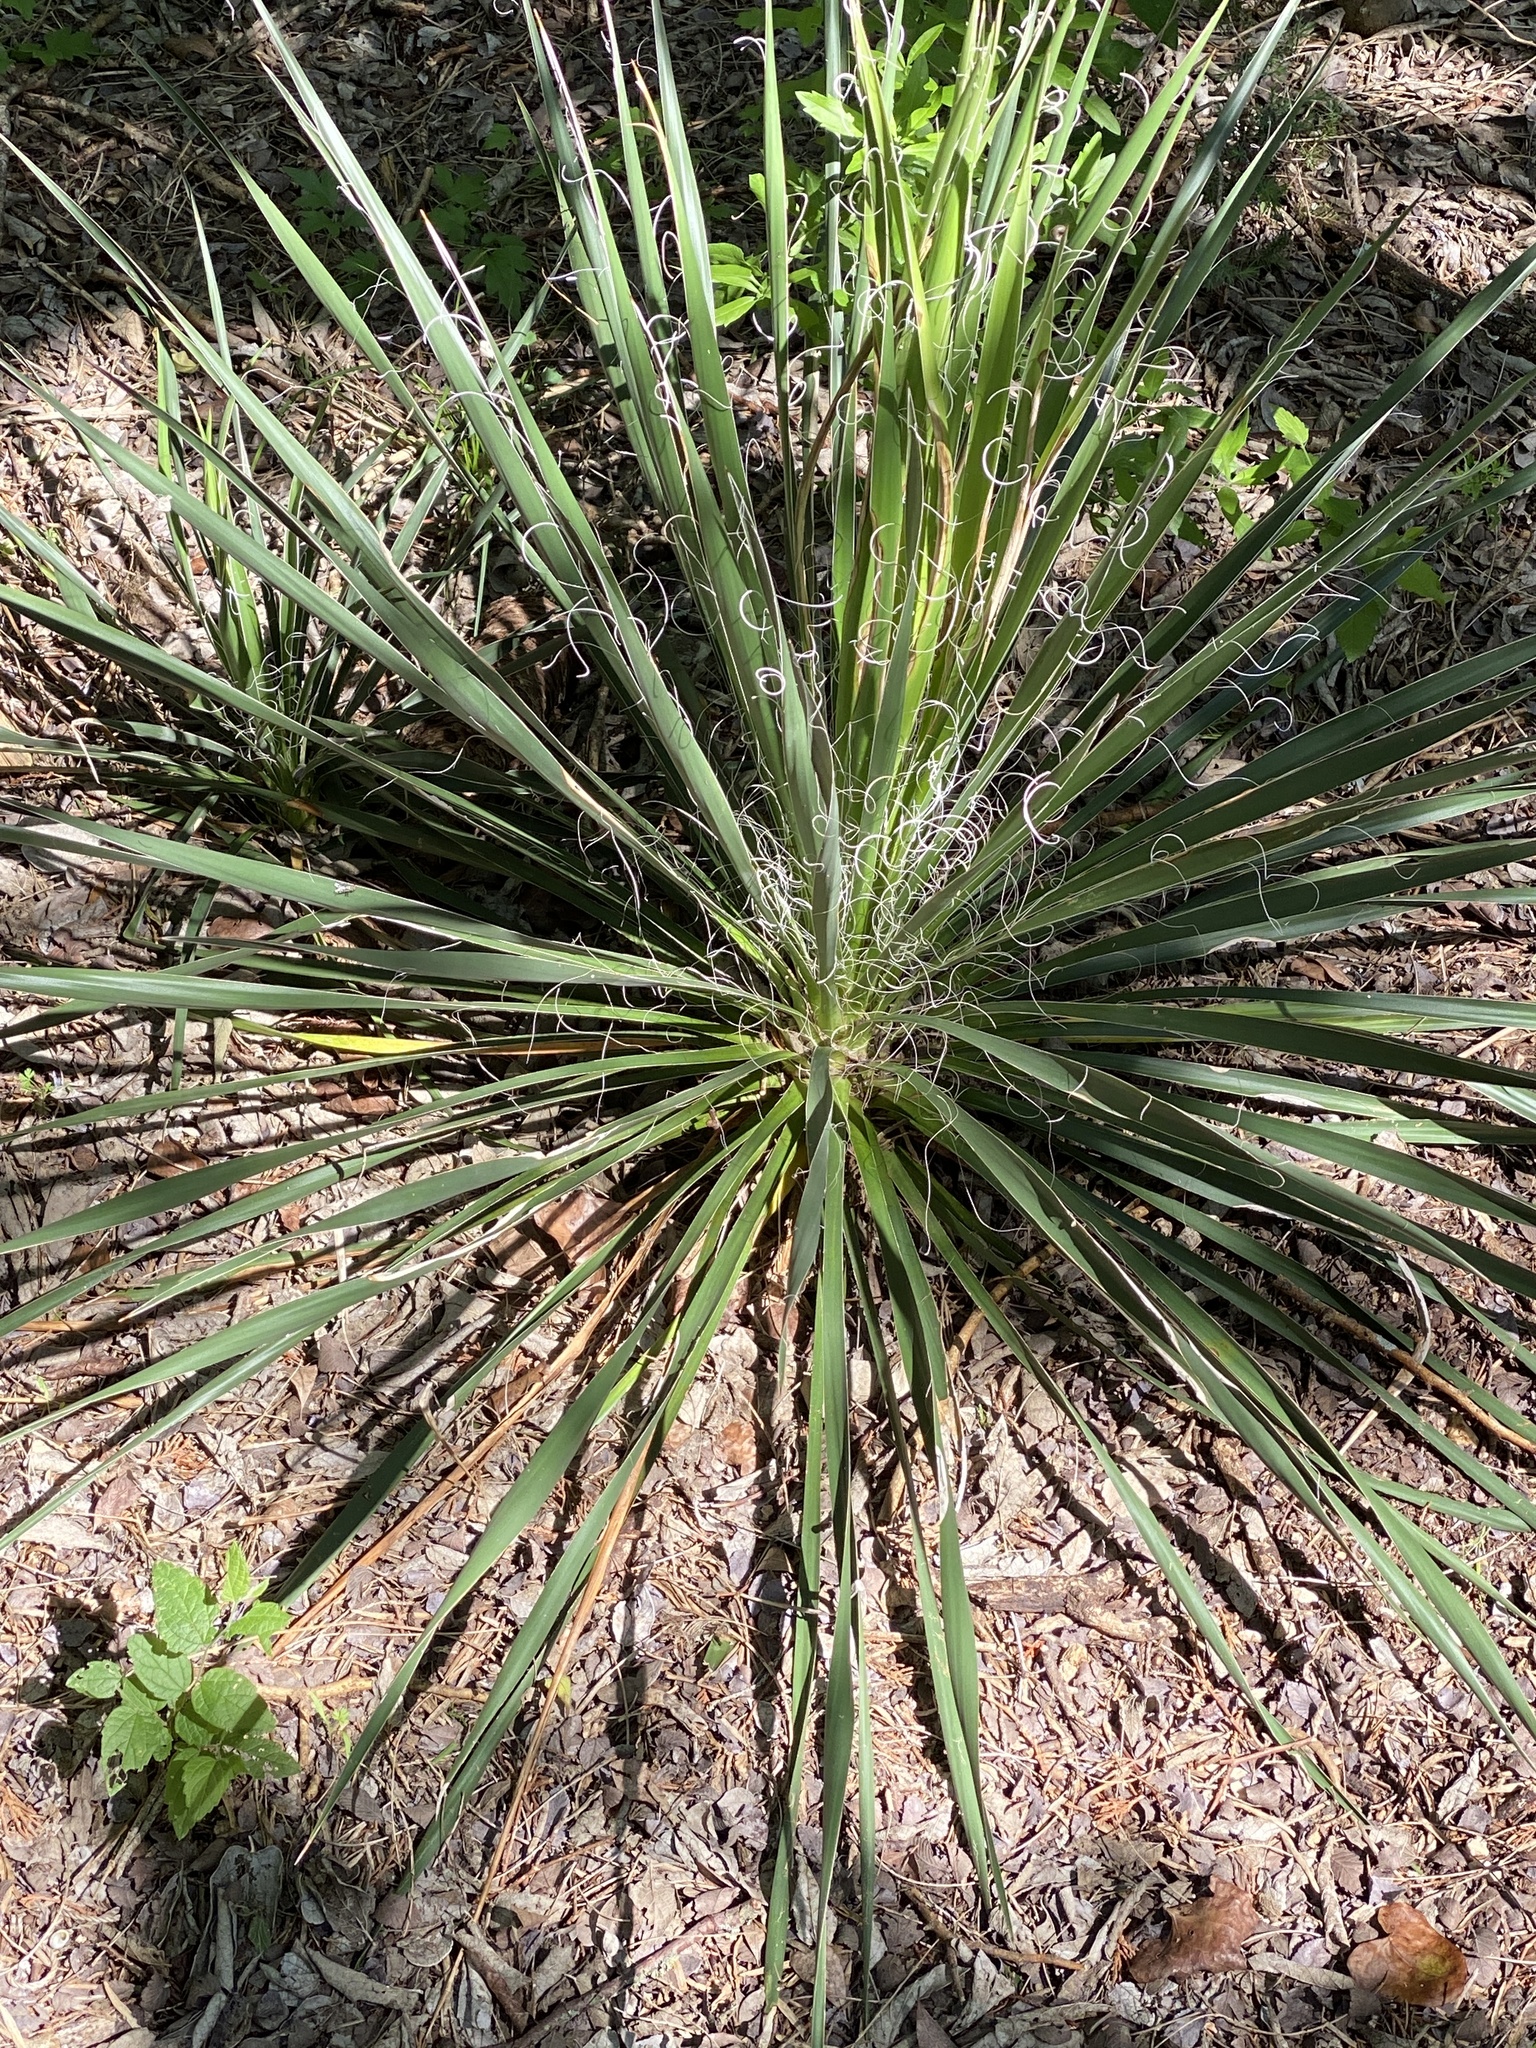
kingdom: Plantae
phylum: Tracheophyta
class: Liliopsida
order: Asparagales
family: Asparagaceae
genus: Yucca
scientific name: Yucca constricta
